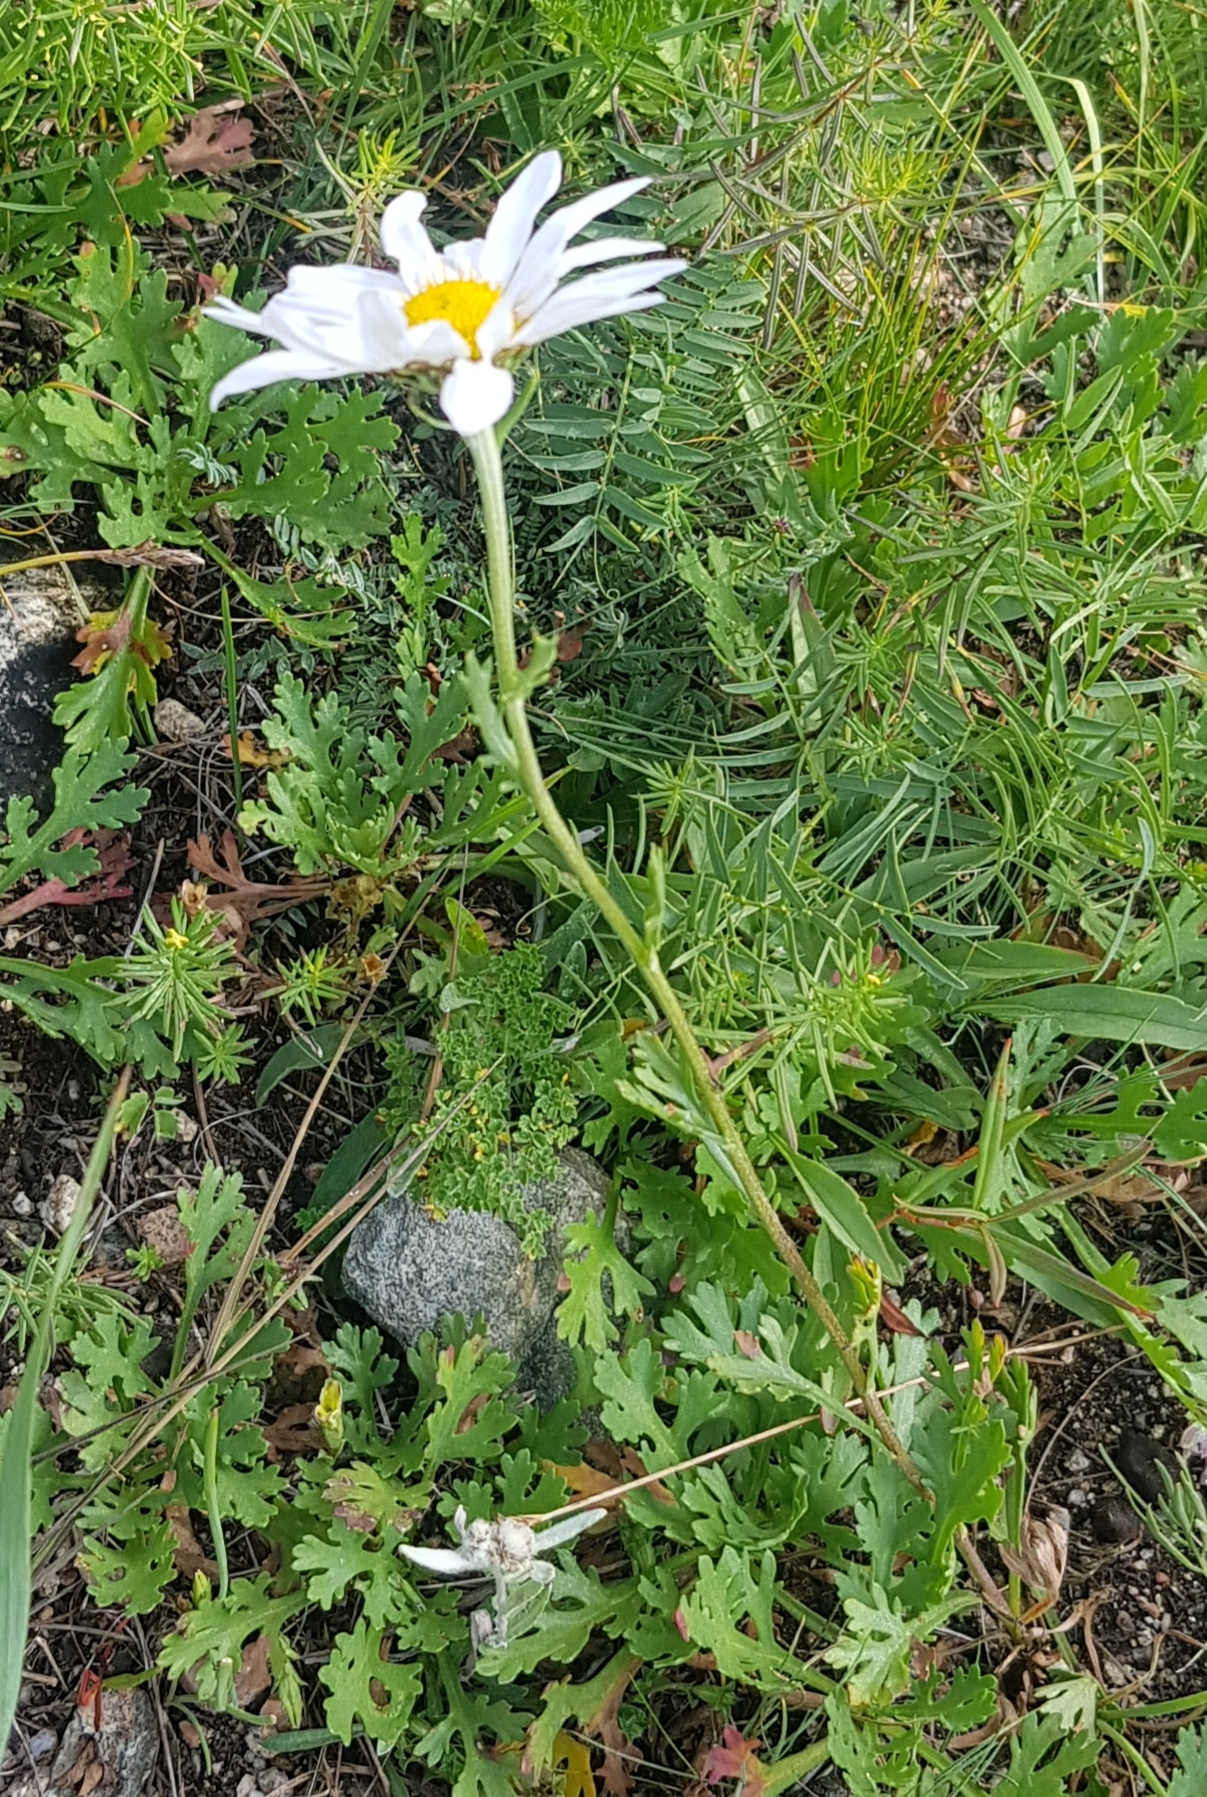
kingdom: Plantae
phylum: Tracheophyta
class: Magnoliopsida
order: Asterales
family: Asteraceae
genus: Chrysanthemum
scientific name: Chrysanthemum zawadzkii
